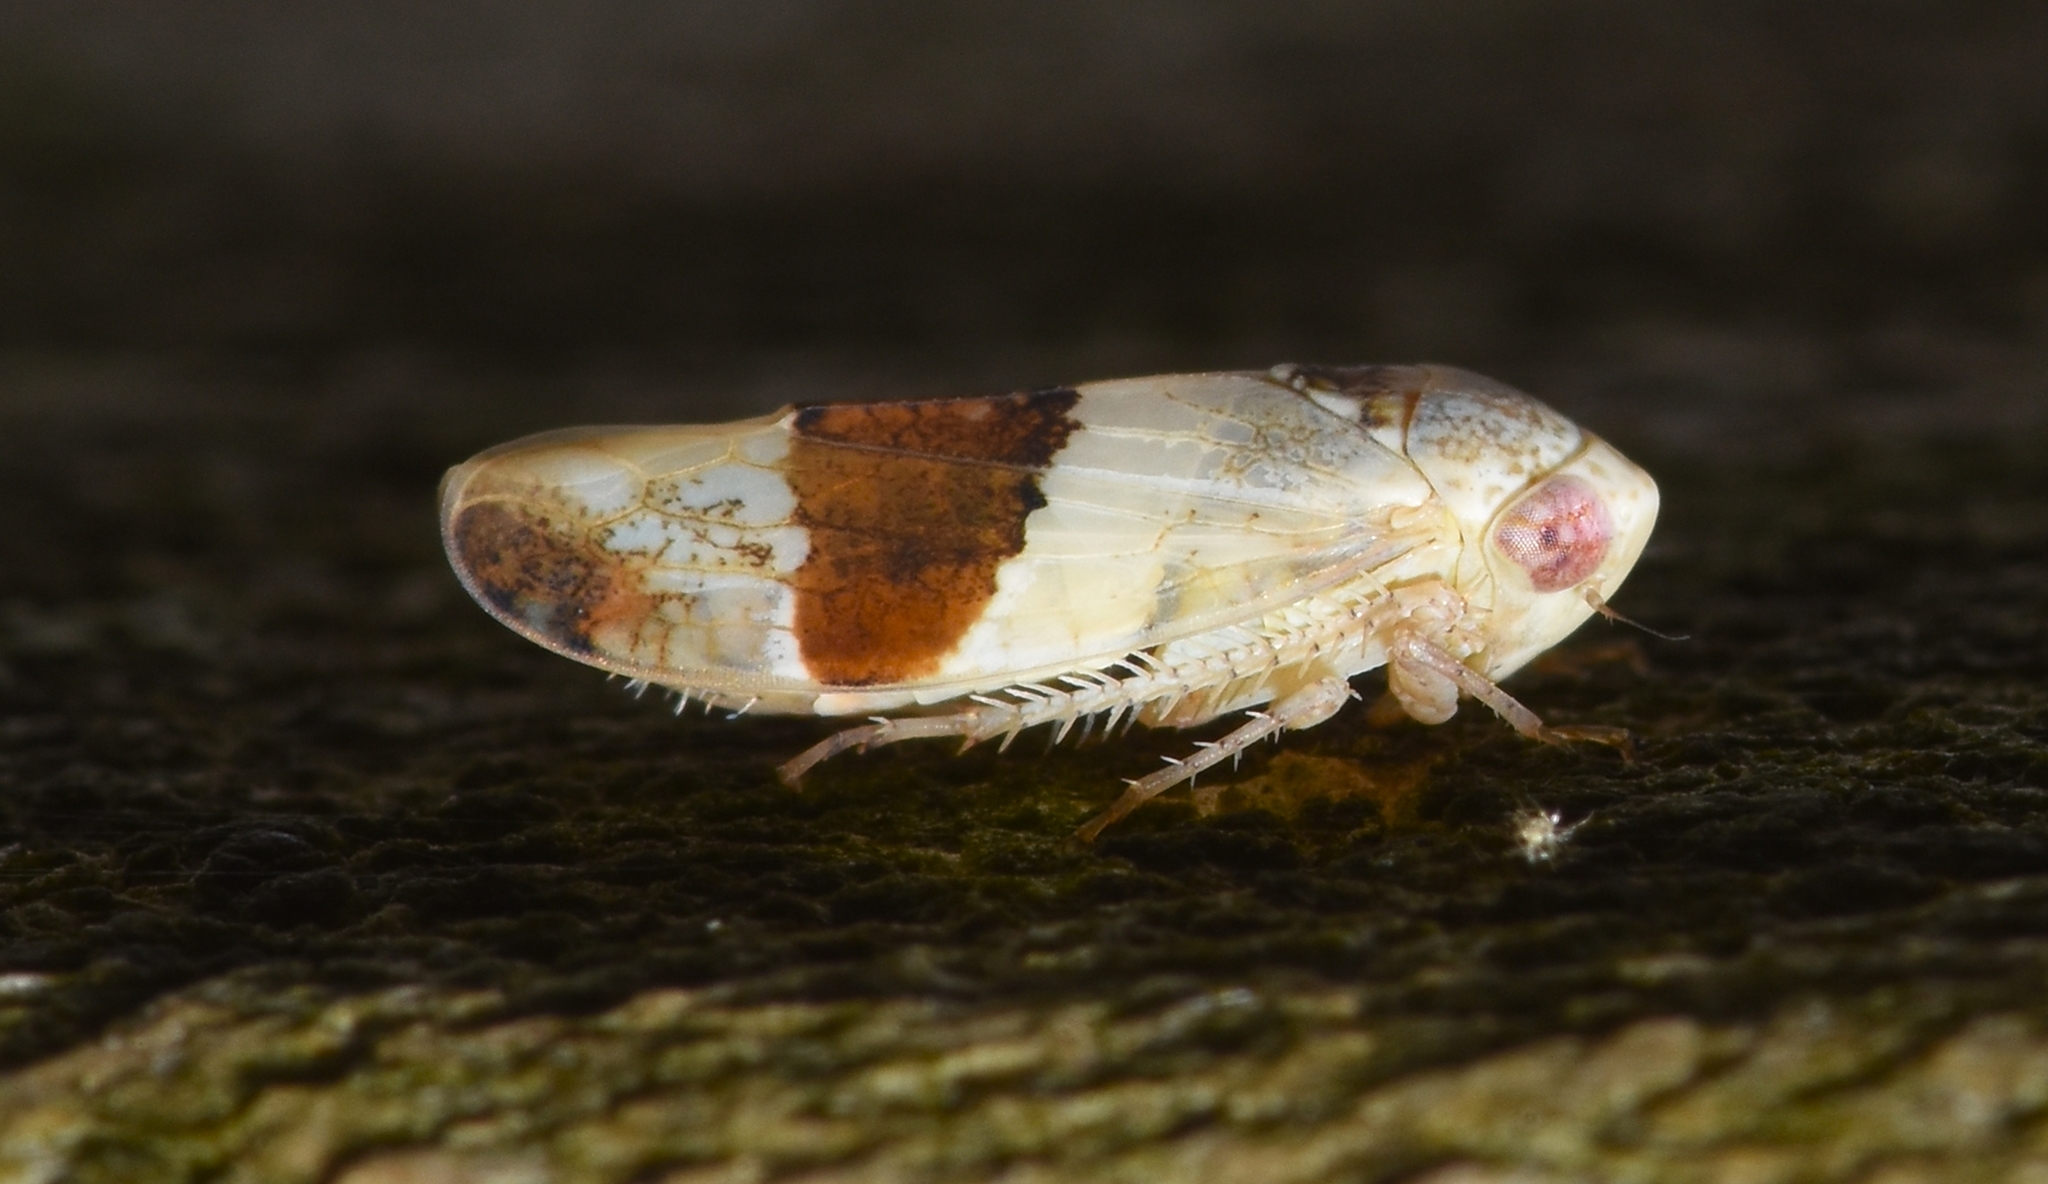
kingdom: Animalia
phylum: Arthropoda
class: Insecta
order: Hemiptera
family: Cicadellidae
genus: Norvellina
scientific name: Norvellina seminuda
